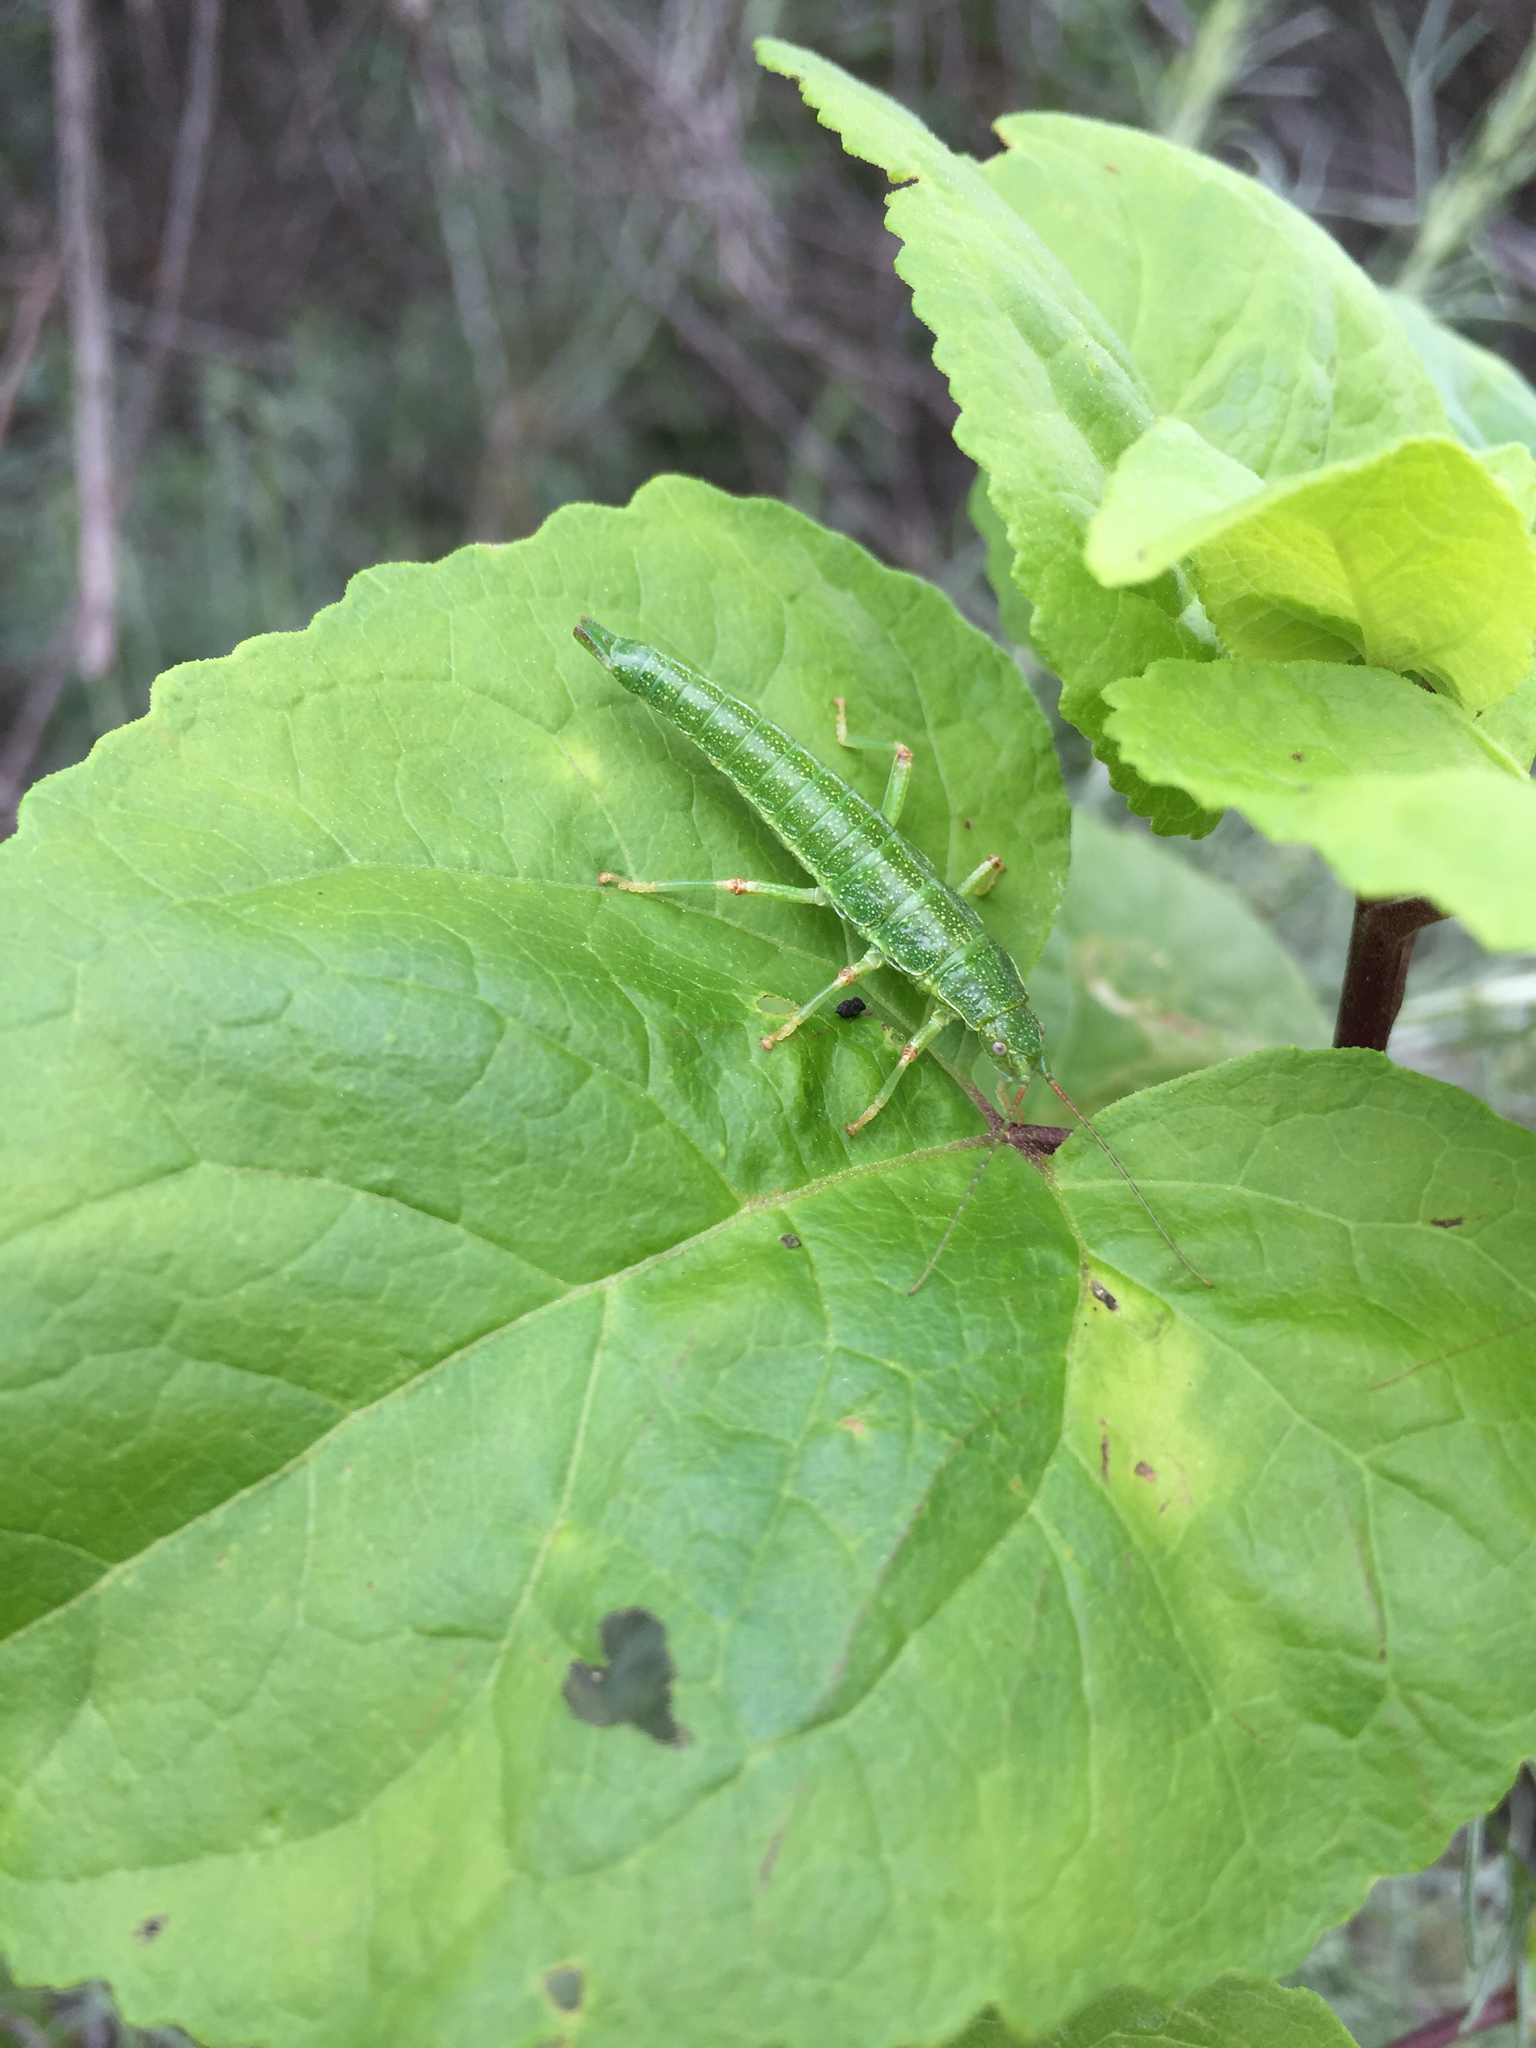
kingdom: Animalia
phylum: Arthropoda
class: Insecta
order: Phasmida
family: Timematidae
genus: Timema
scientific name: Timema monikense
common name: Santa monica mountains timema
